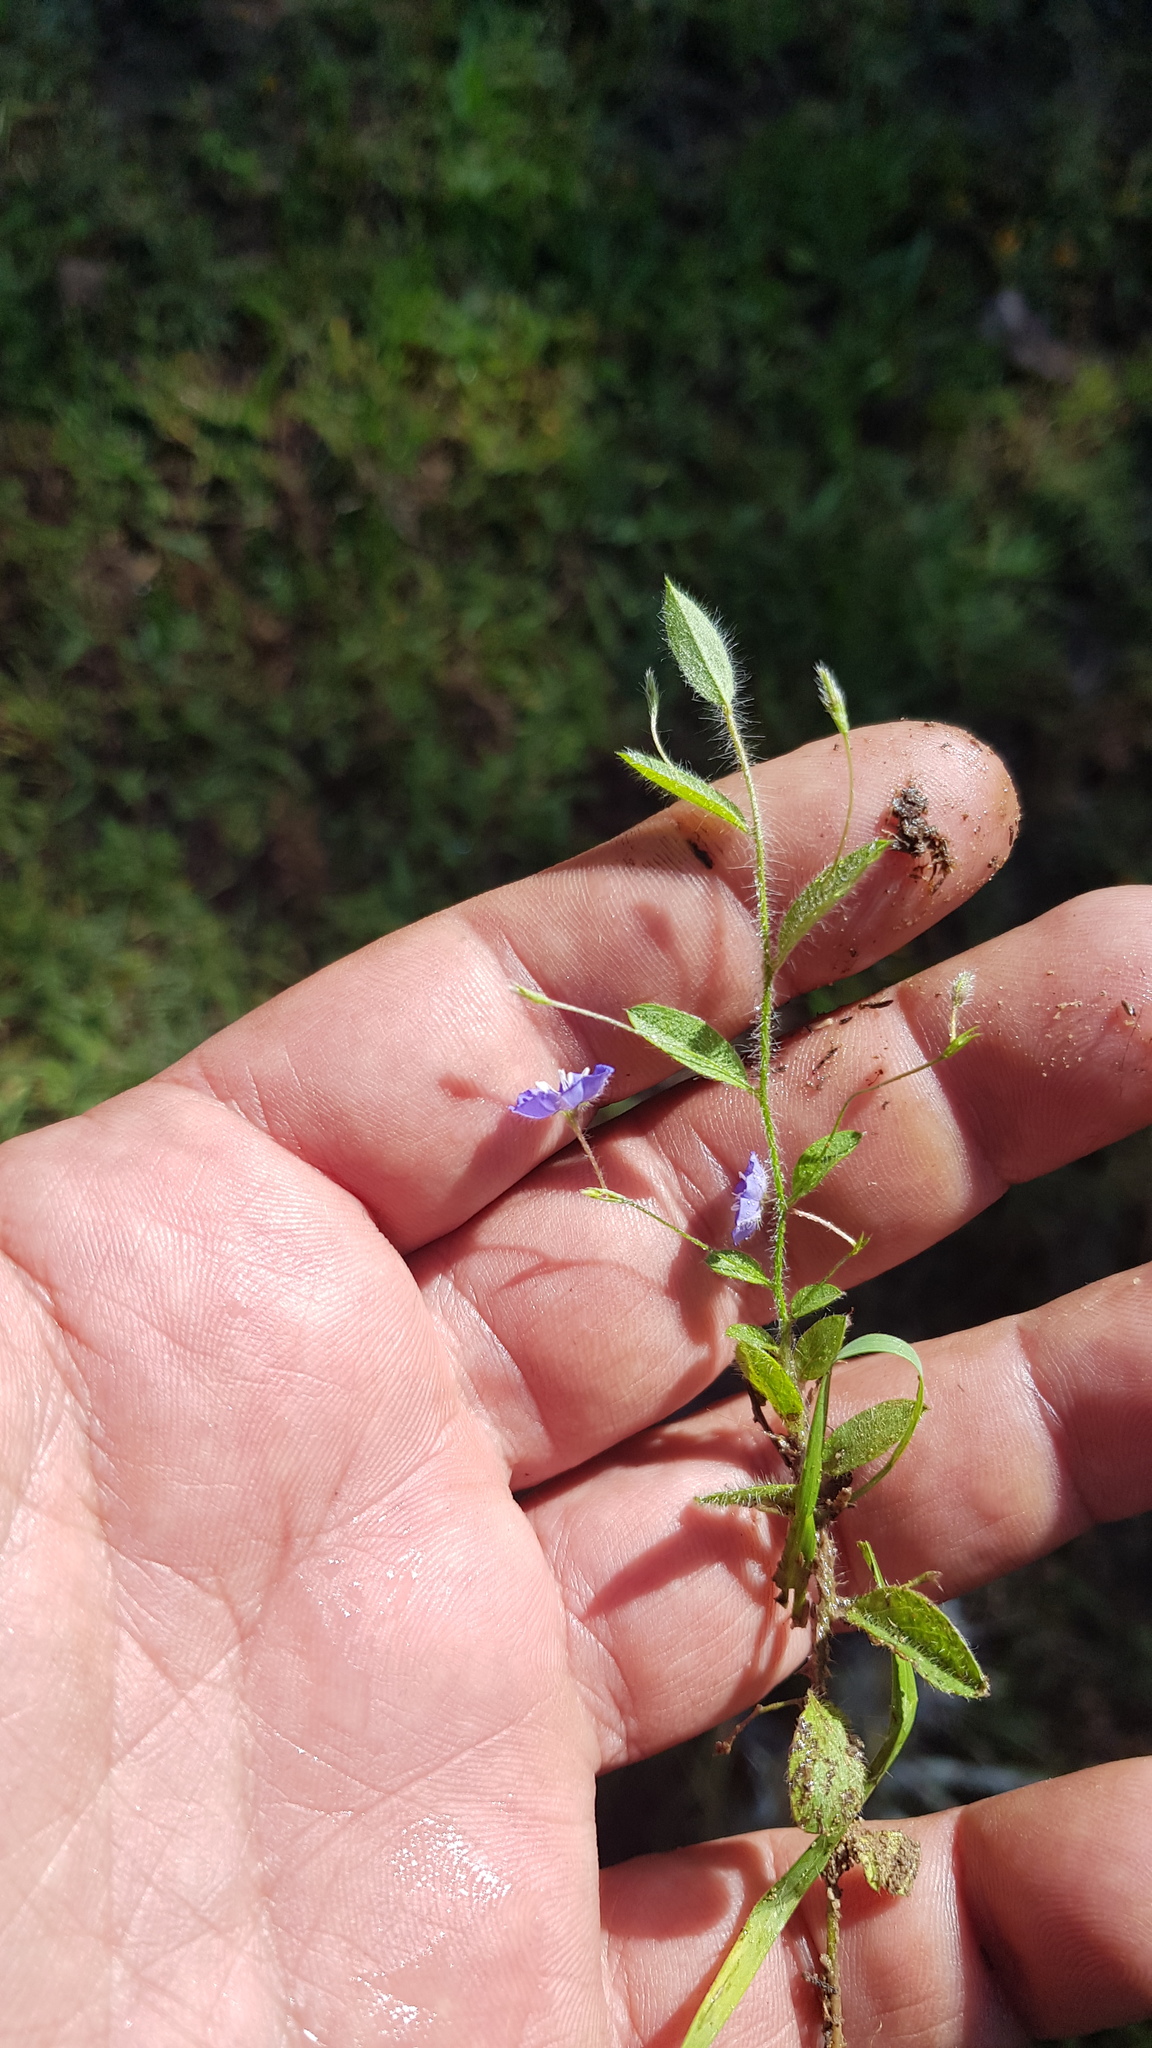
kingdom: Plantae
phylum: Tracheophyta
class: Magnoliopsida
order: Solanales
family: Convolvulaceae
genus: Evolvulus
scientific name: Evolvulus alsinoides
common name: Slender dwarf morning-glory
